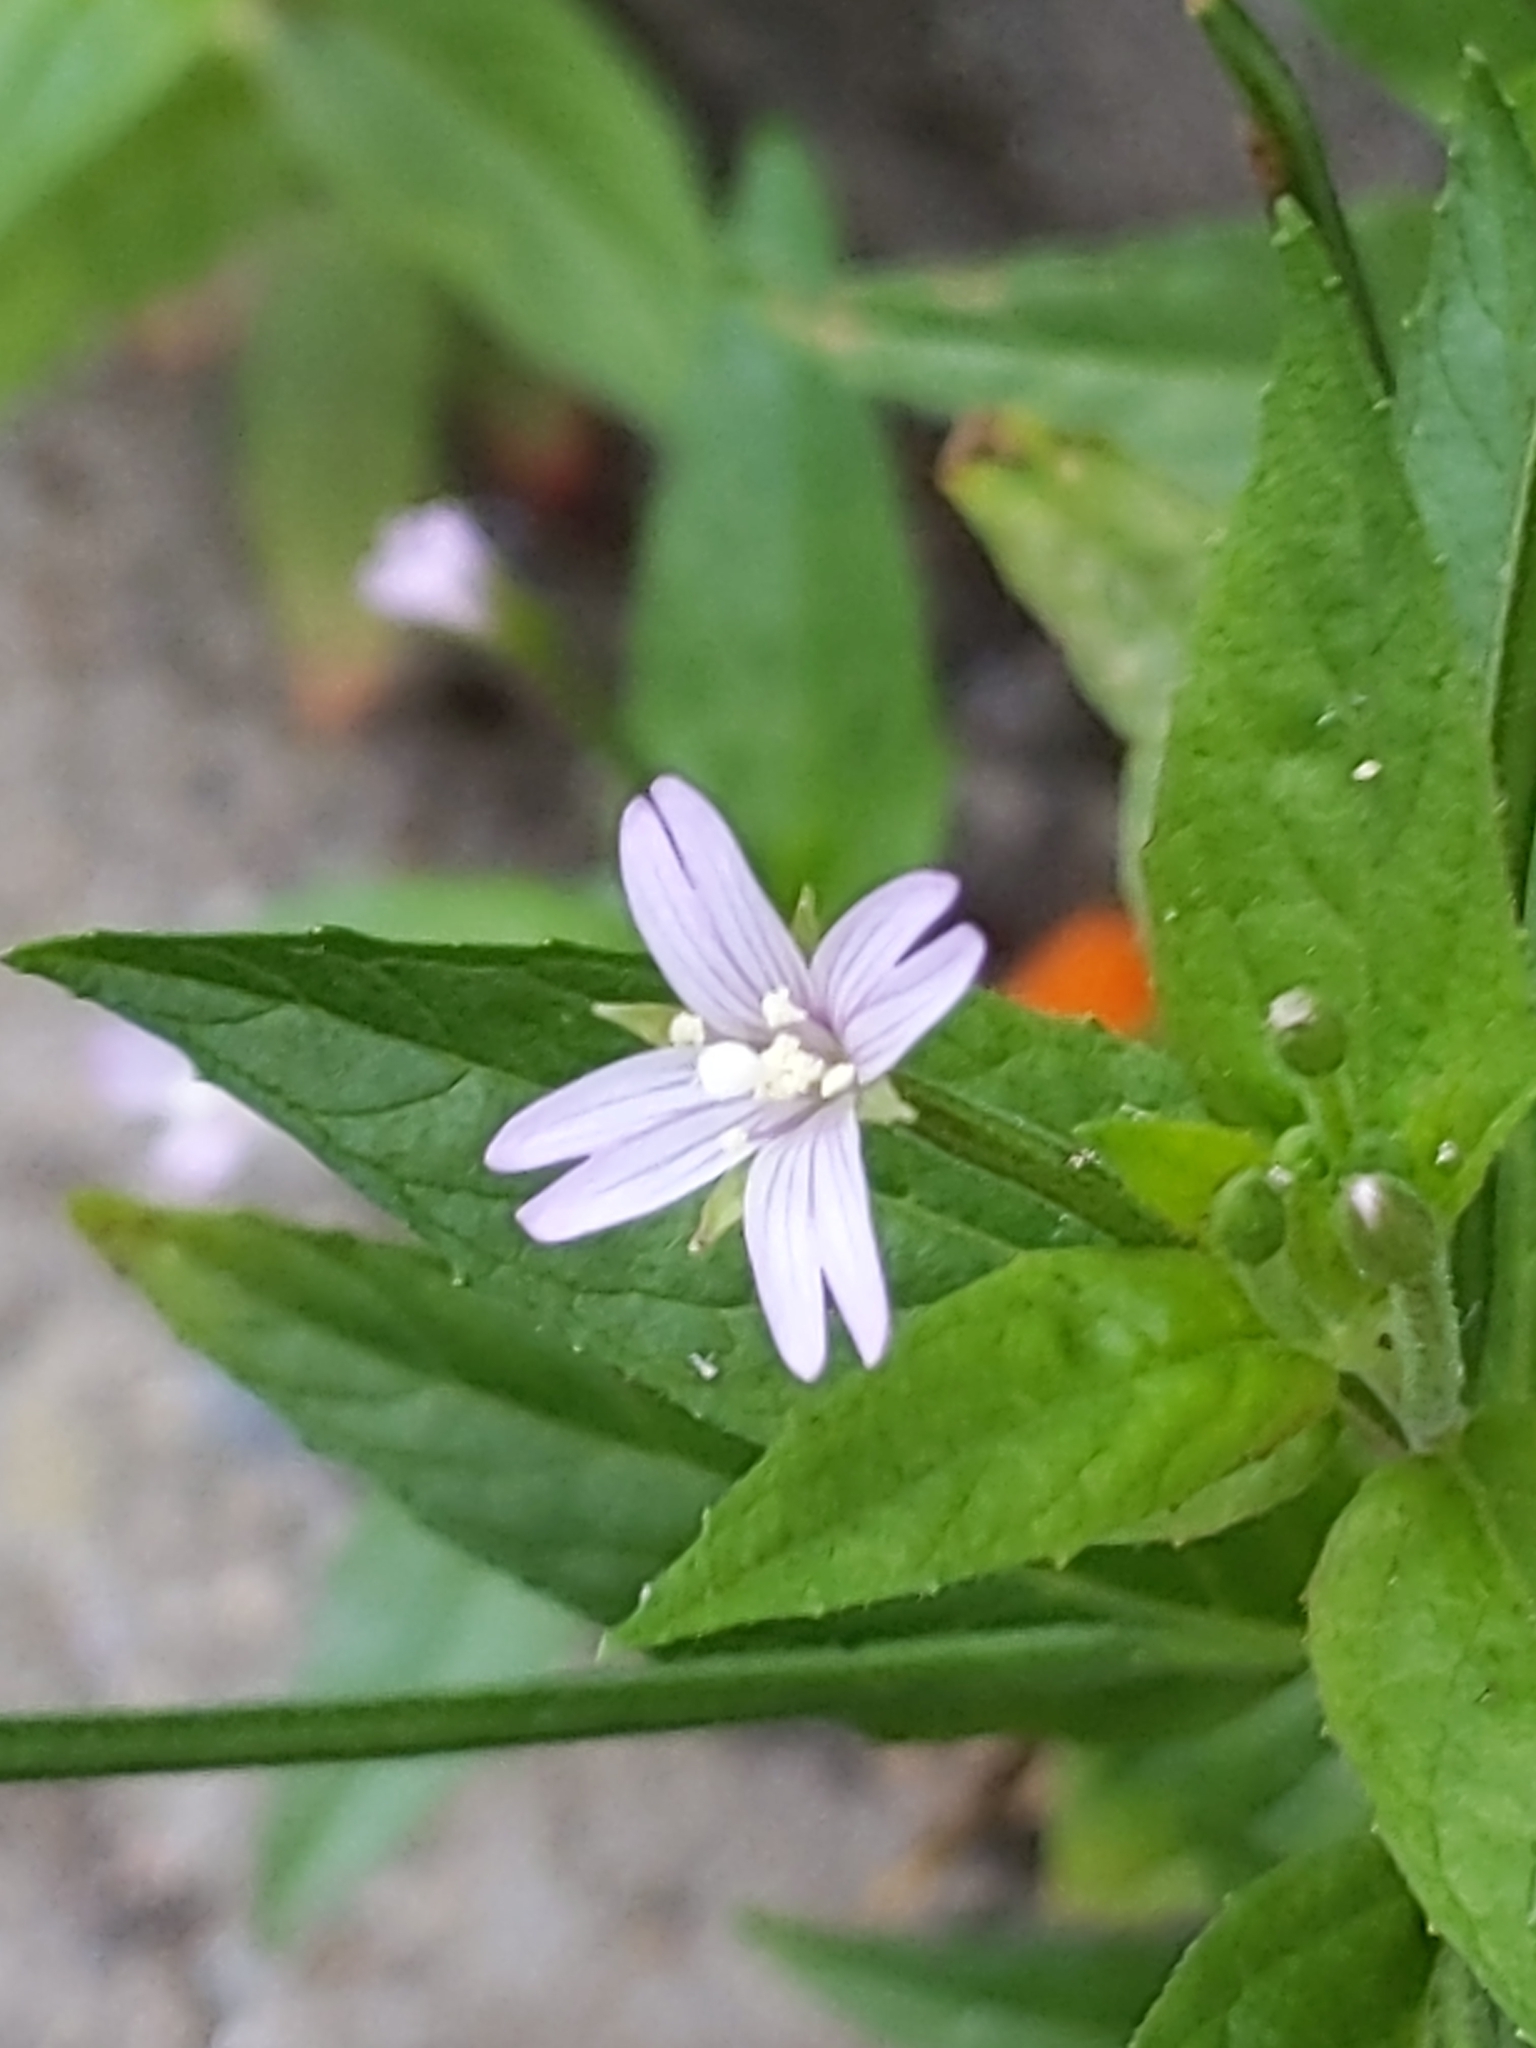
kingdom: Plantae
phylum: Tracheophyta
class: Magnoliopsida
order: Myrtales
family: Onagraceae
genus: Epilobium
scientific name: Epilobium ciliatum
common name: American willowherb
